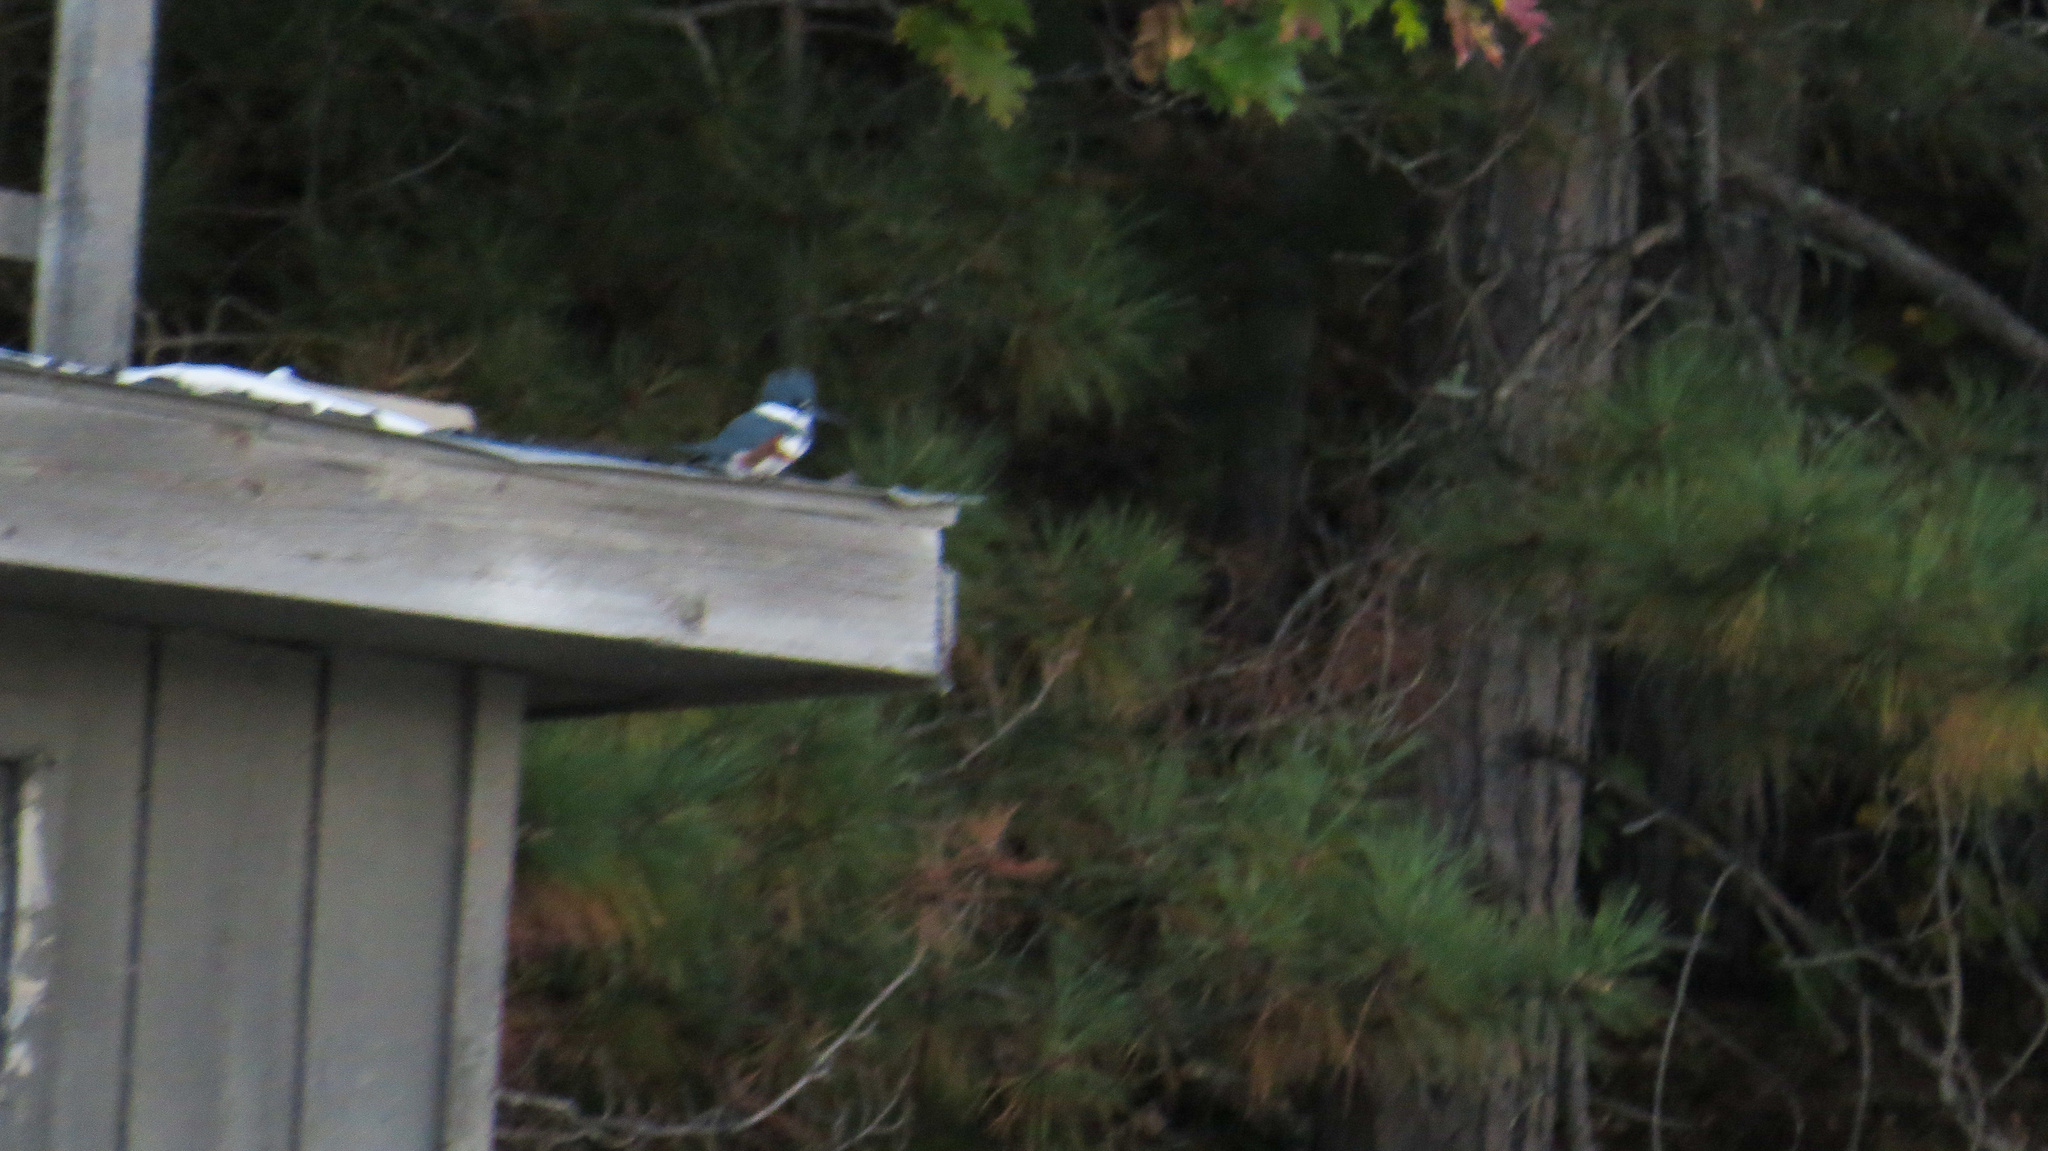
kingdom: Animalia
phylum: Chordata
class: Aves
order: Coraciiformes
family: Alcedinidae
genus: Megaceryle
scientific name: Megaceryle alcyon
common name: Belted kingfisher
